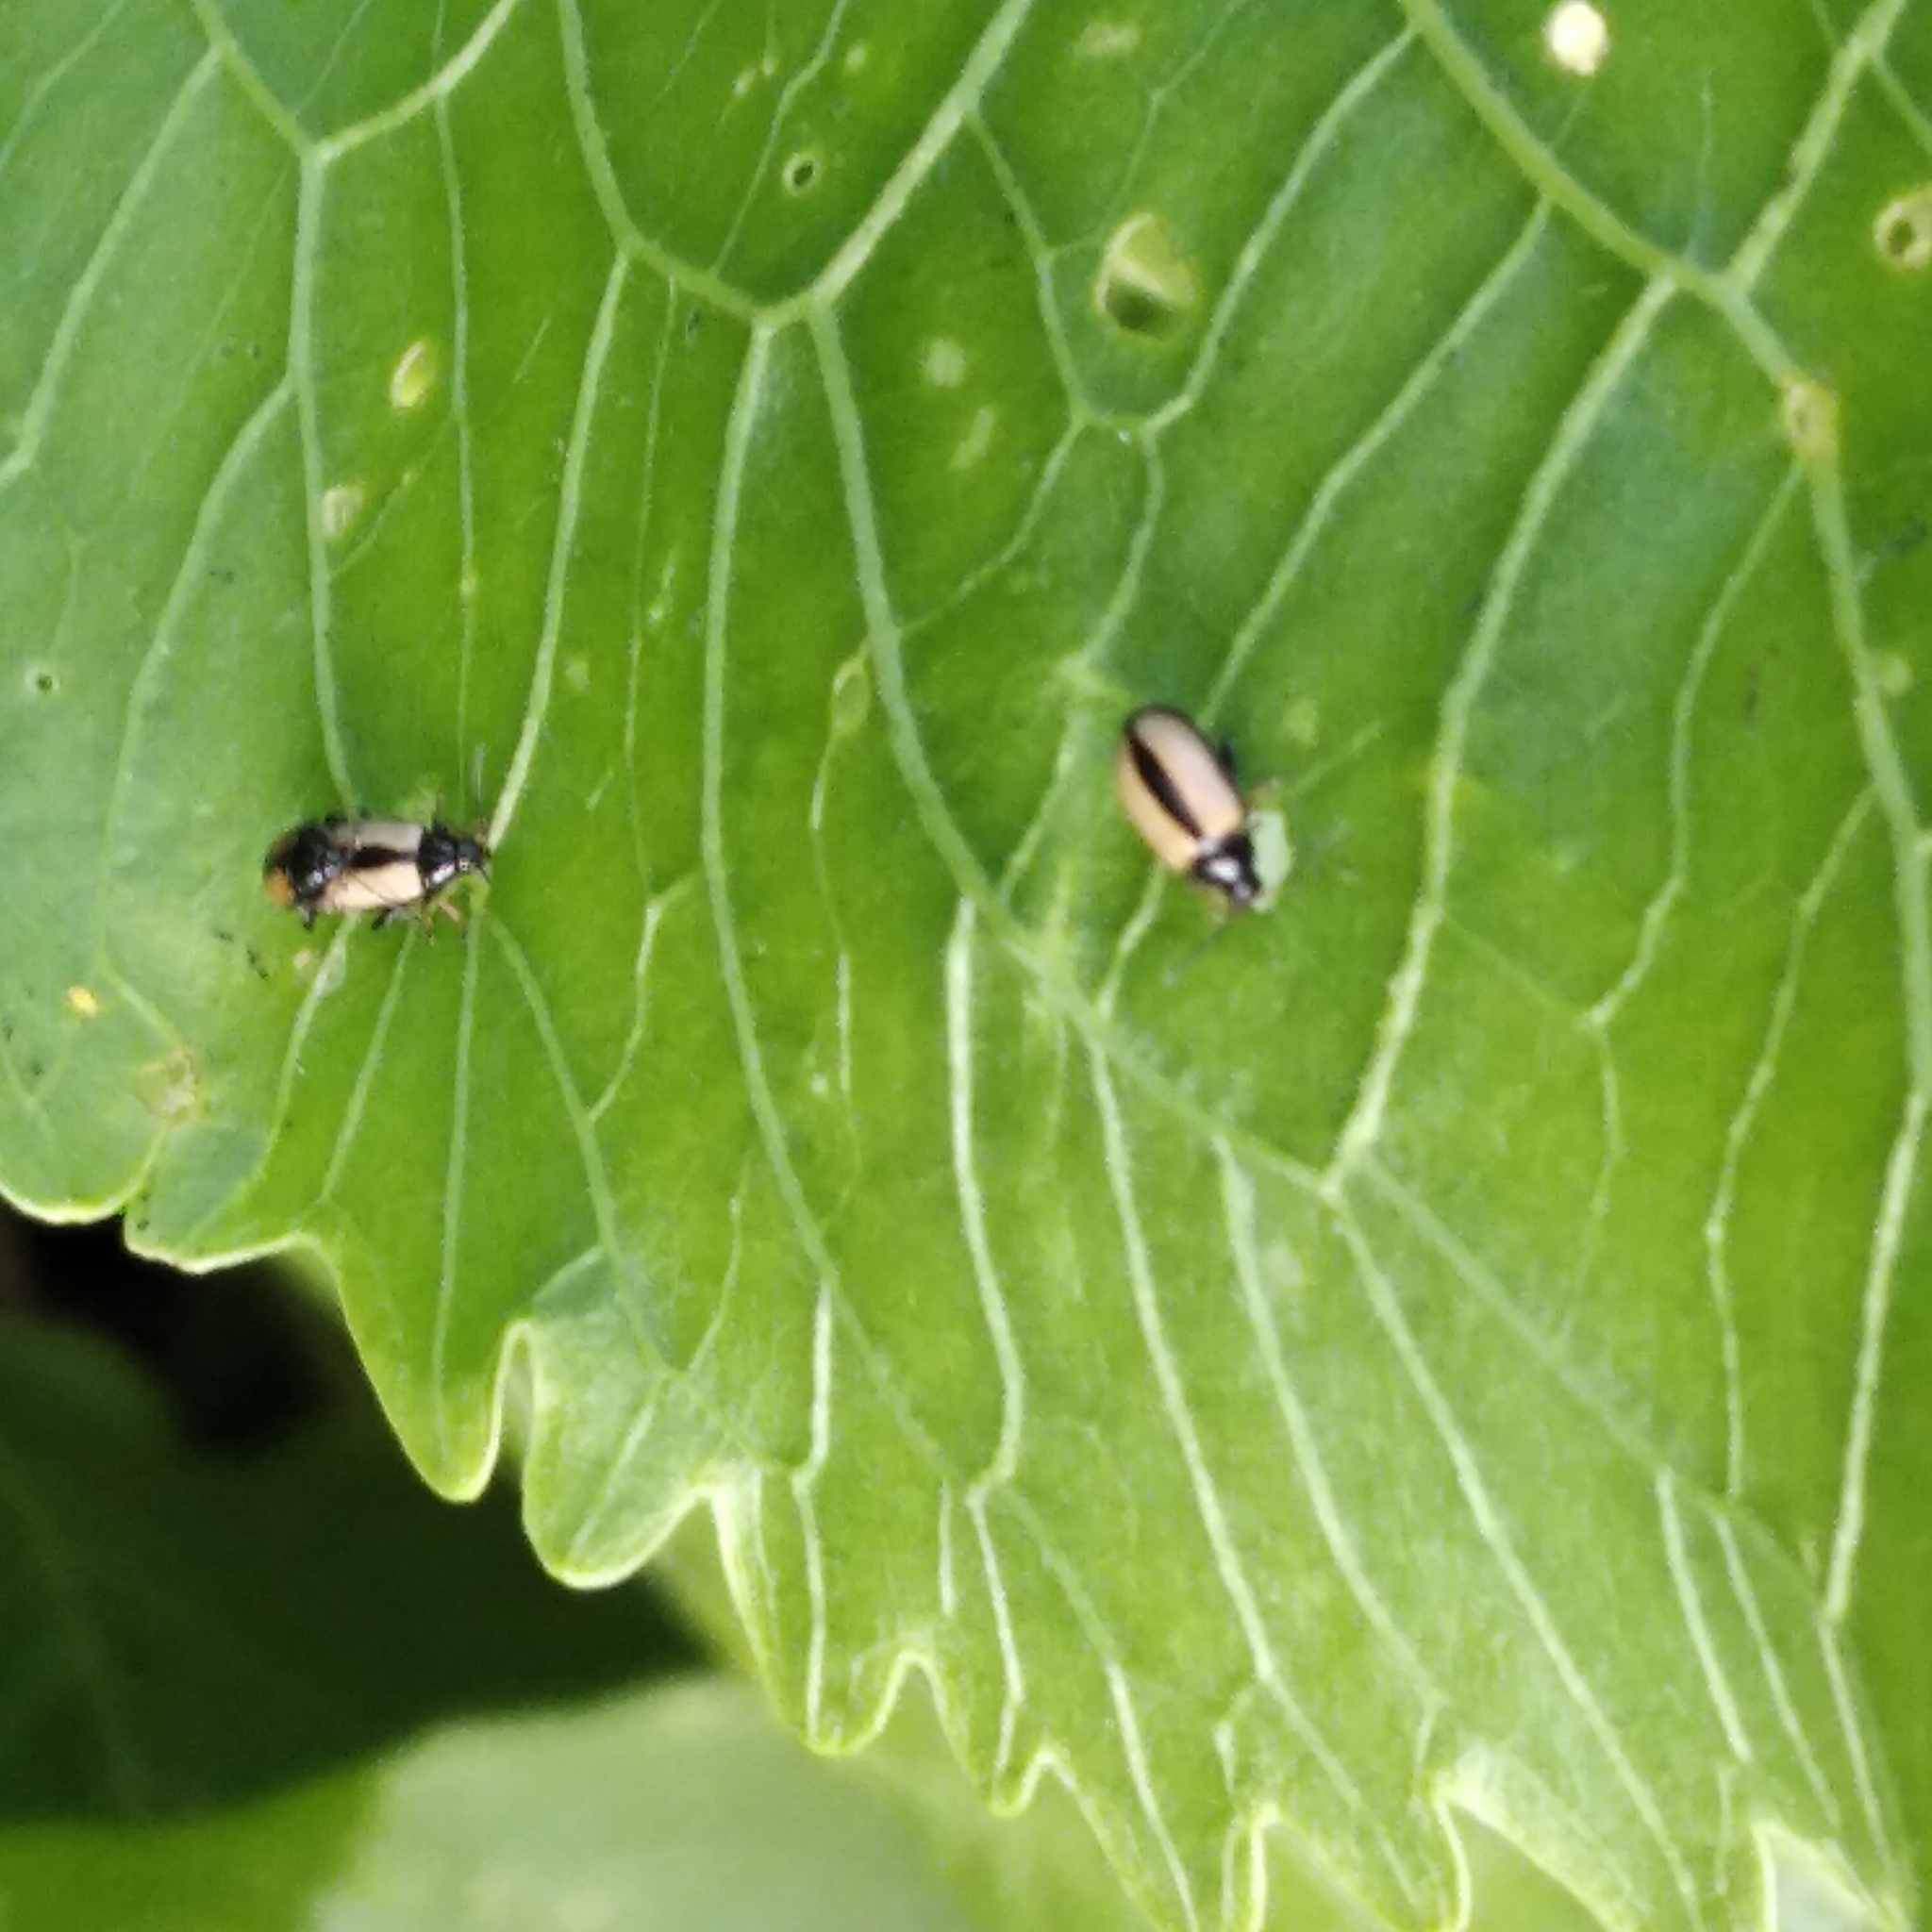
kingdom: Animalia
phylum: Arthropoda
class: Insecta
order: Coleoptera
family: Chrysomelidae
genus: Phyllotreta
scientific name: Phyllotreta armoraciae
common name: Horseradish flea beetle
